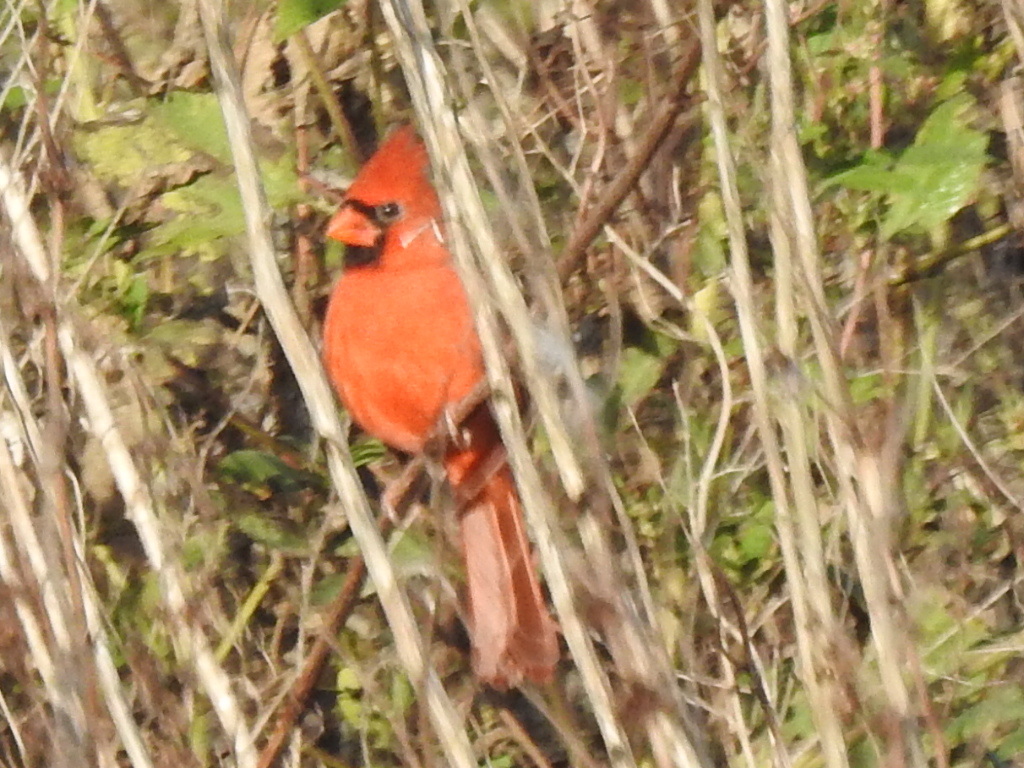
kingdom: Animalia
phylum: Chordata
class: Aves
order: Passeriformes
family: Cardinalidae
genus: Cardinalis
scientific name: Cardinalis cardinalis
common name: Northern cardinal
